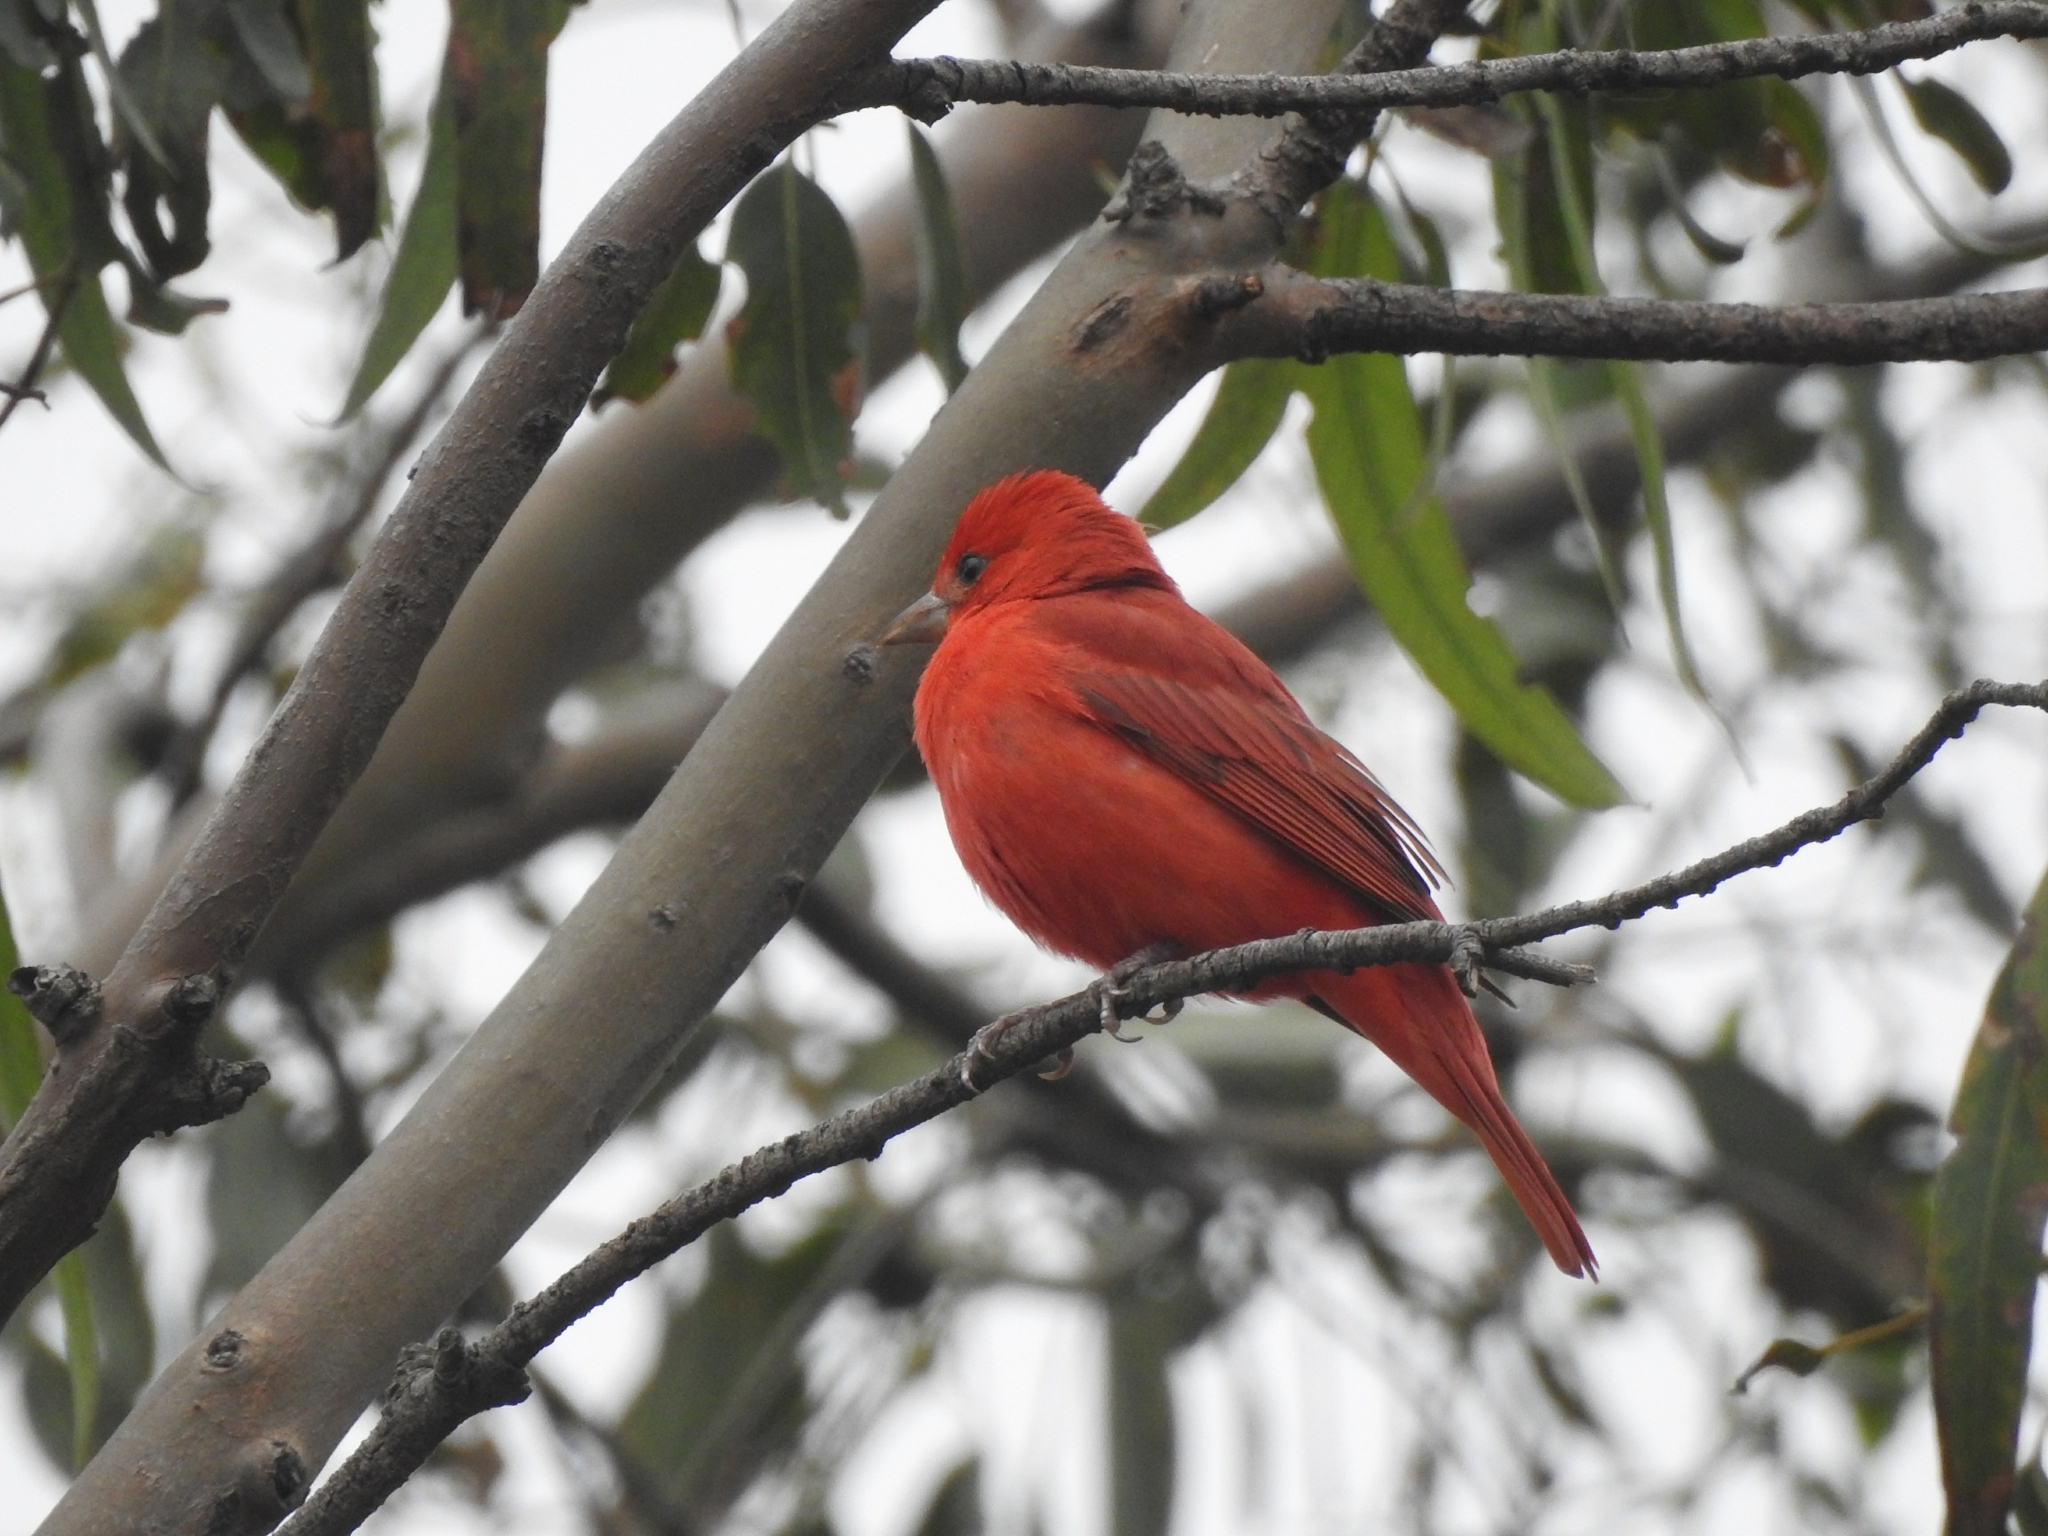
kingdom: Animalia
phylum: Chordata
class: Aves
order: Passeriformes
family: Cardinalidae
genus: Piranga
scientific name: Piranga rubra
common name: Summer tanager
